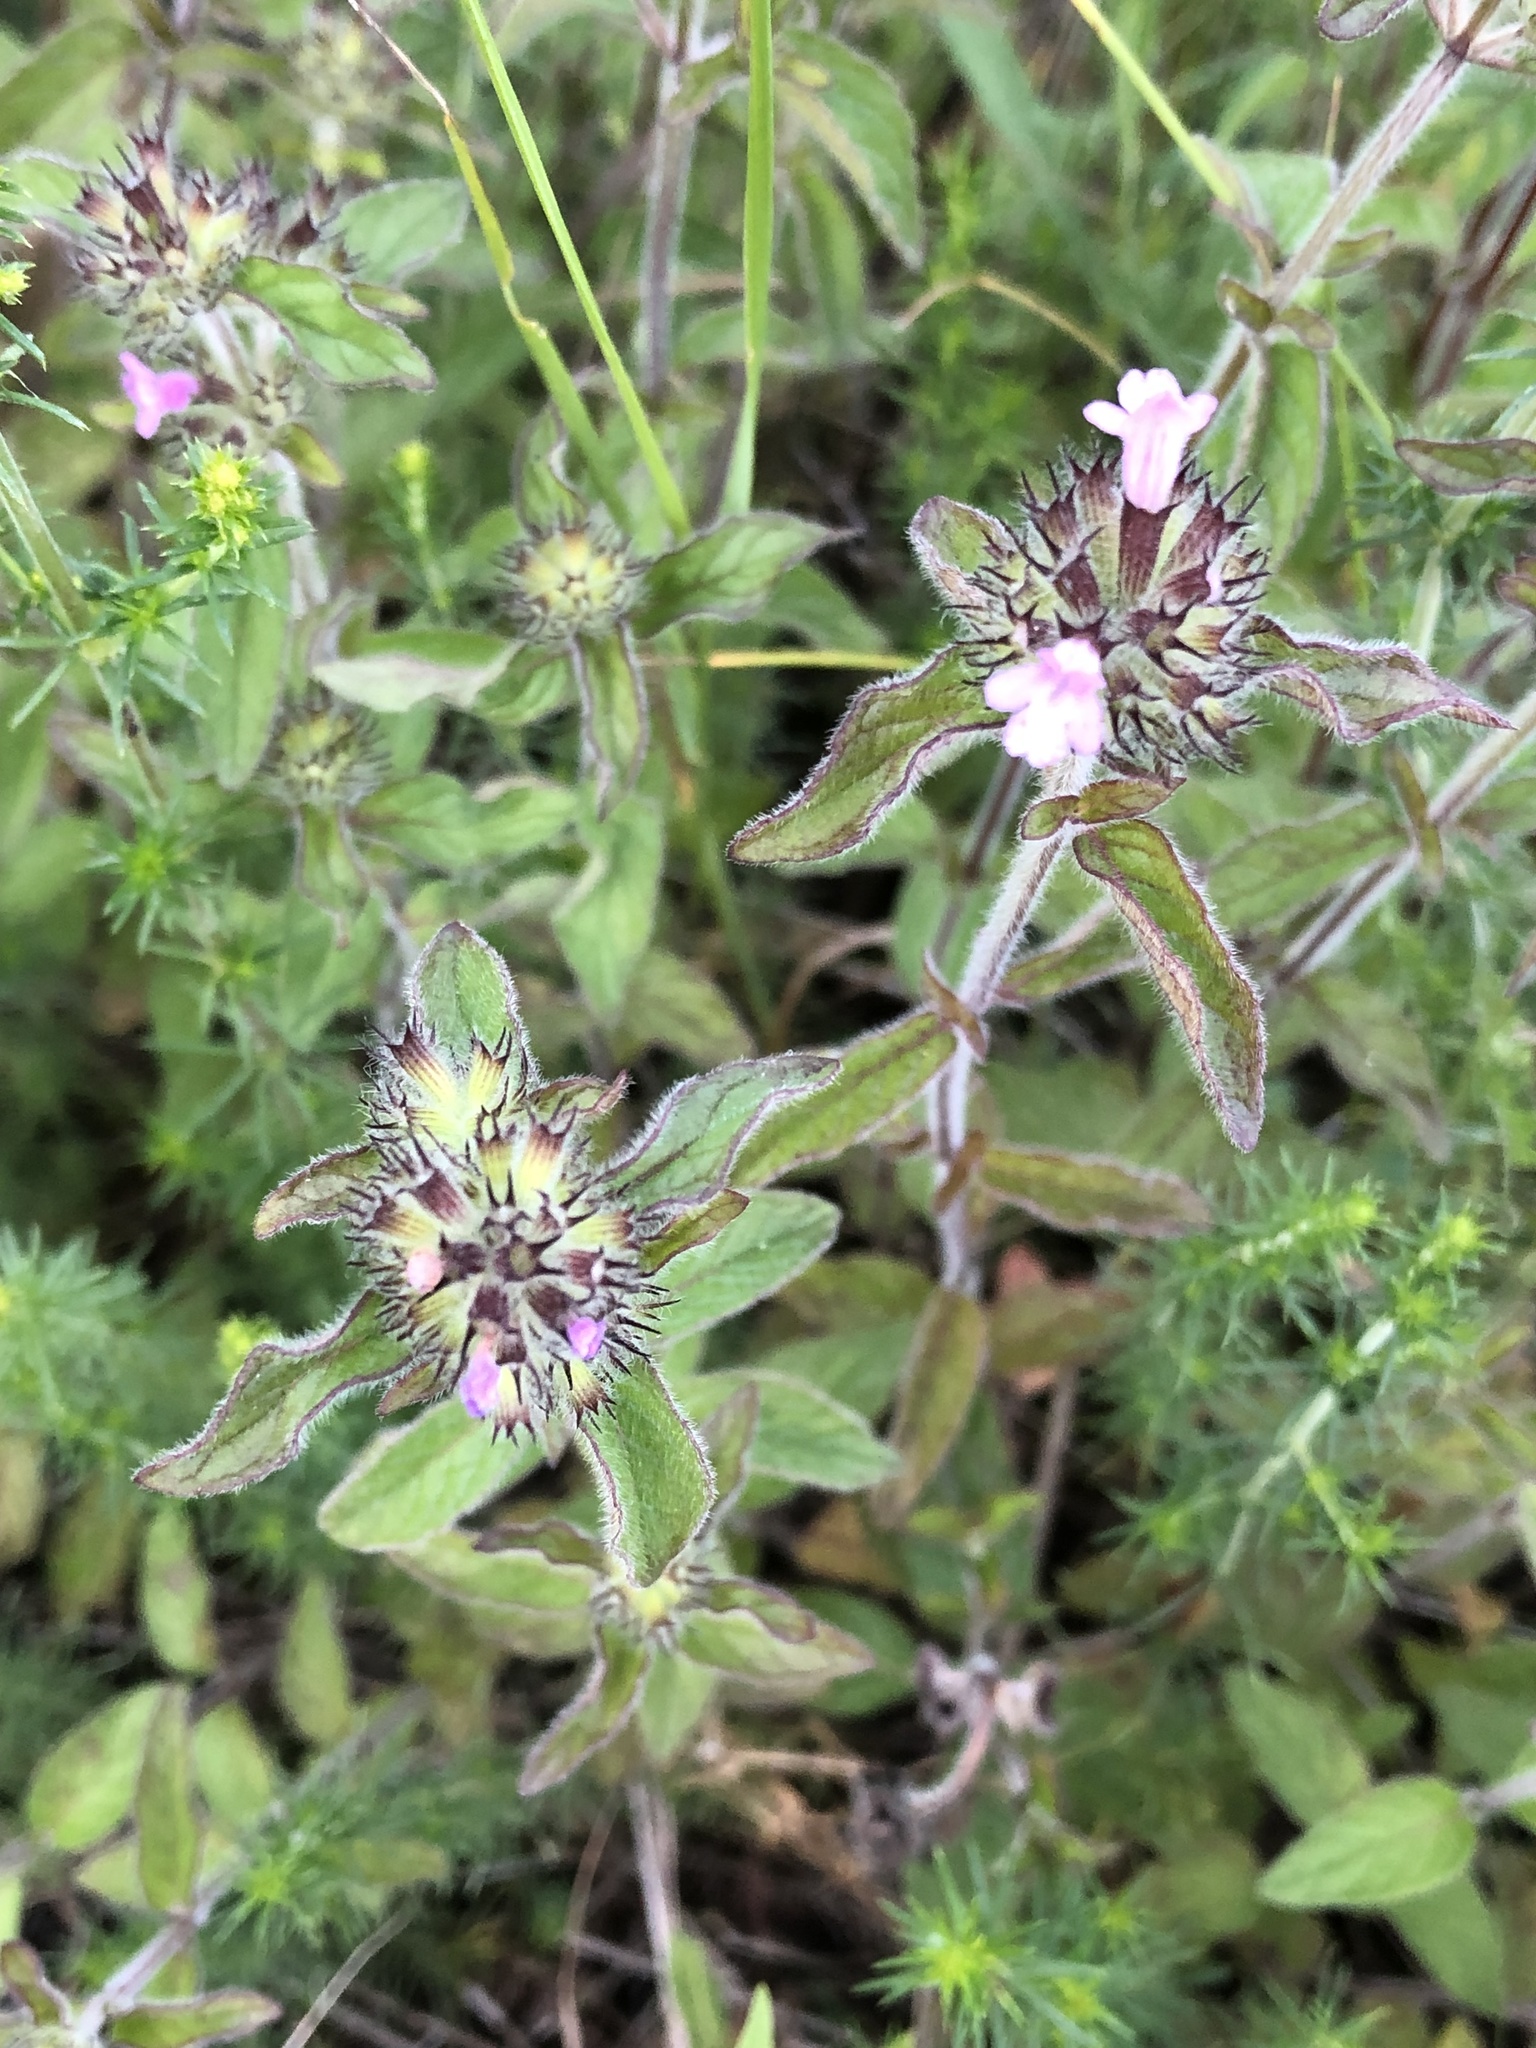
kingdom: Plantae
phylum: Tracheophyta
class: Magnoliopsida
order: Lamiales
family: Lamiaceae
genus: Clinopodium
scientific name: Clinopodium vulgare
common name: Wild basil
